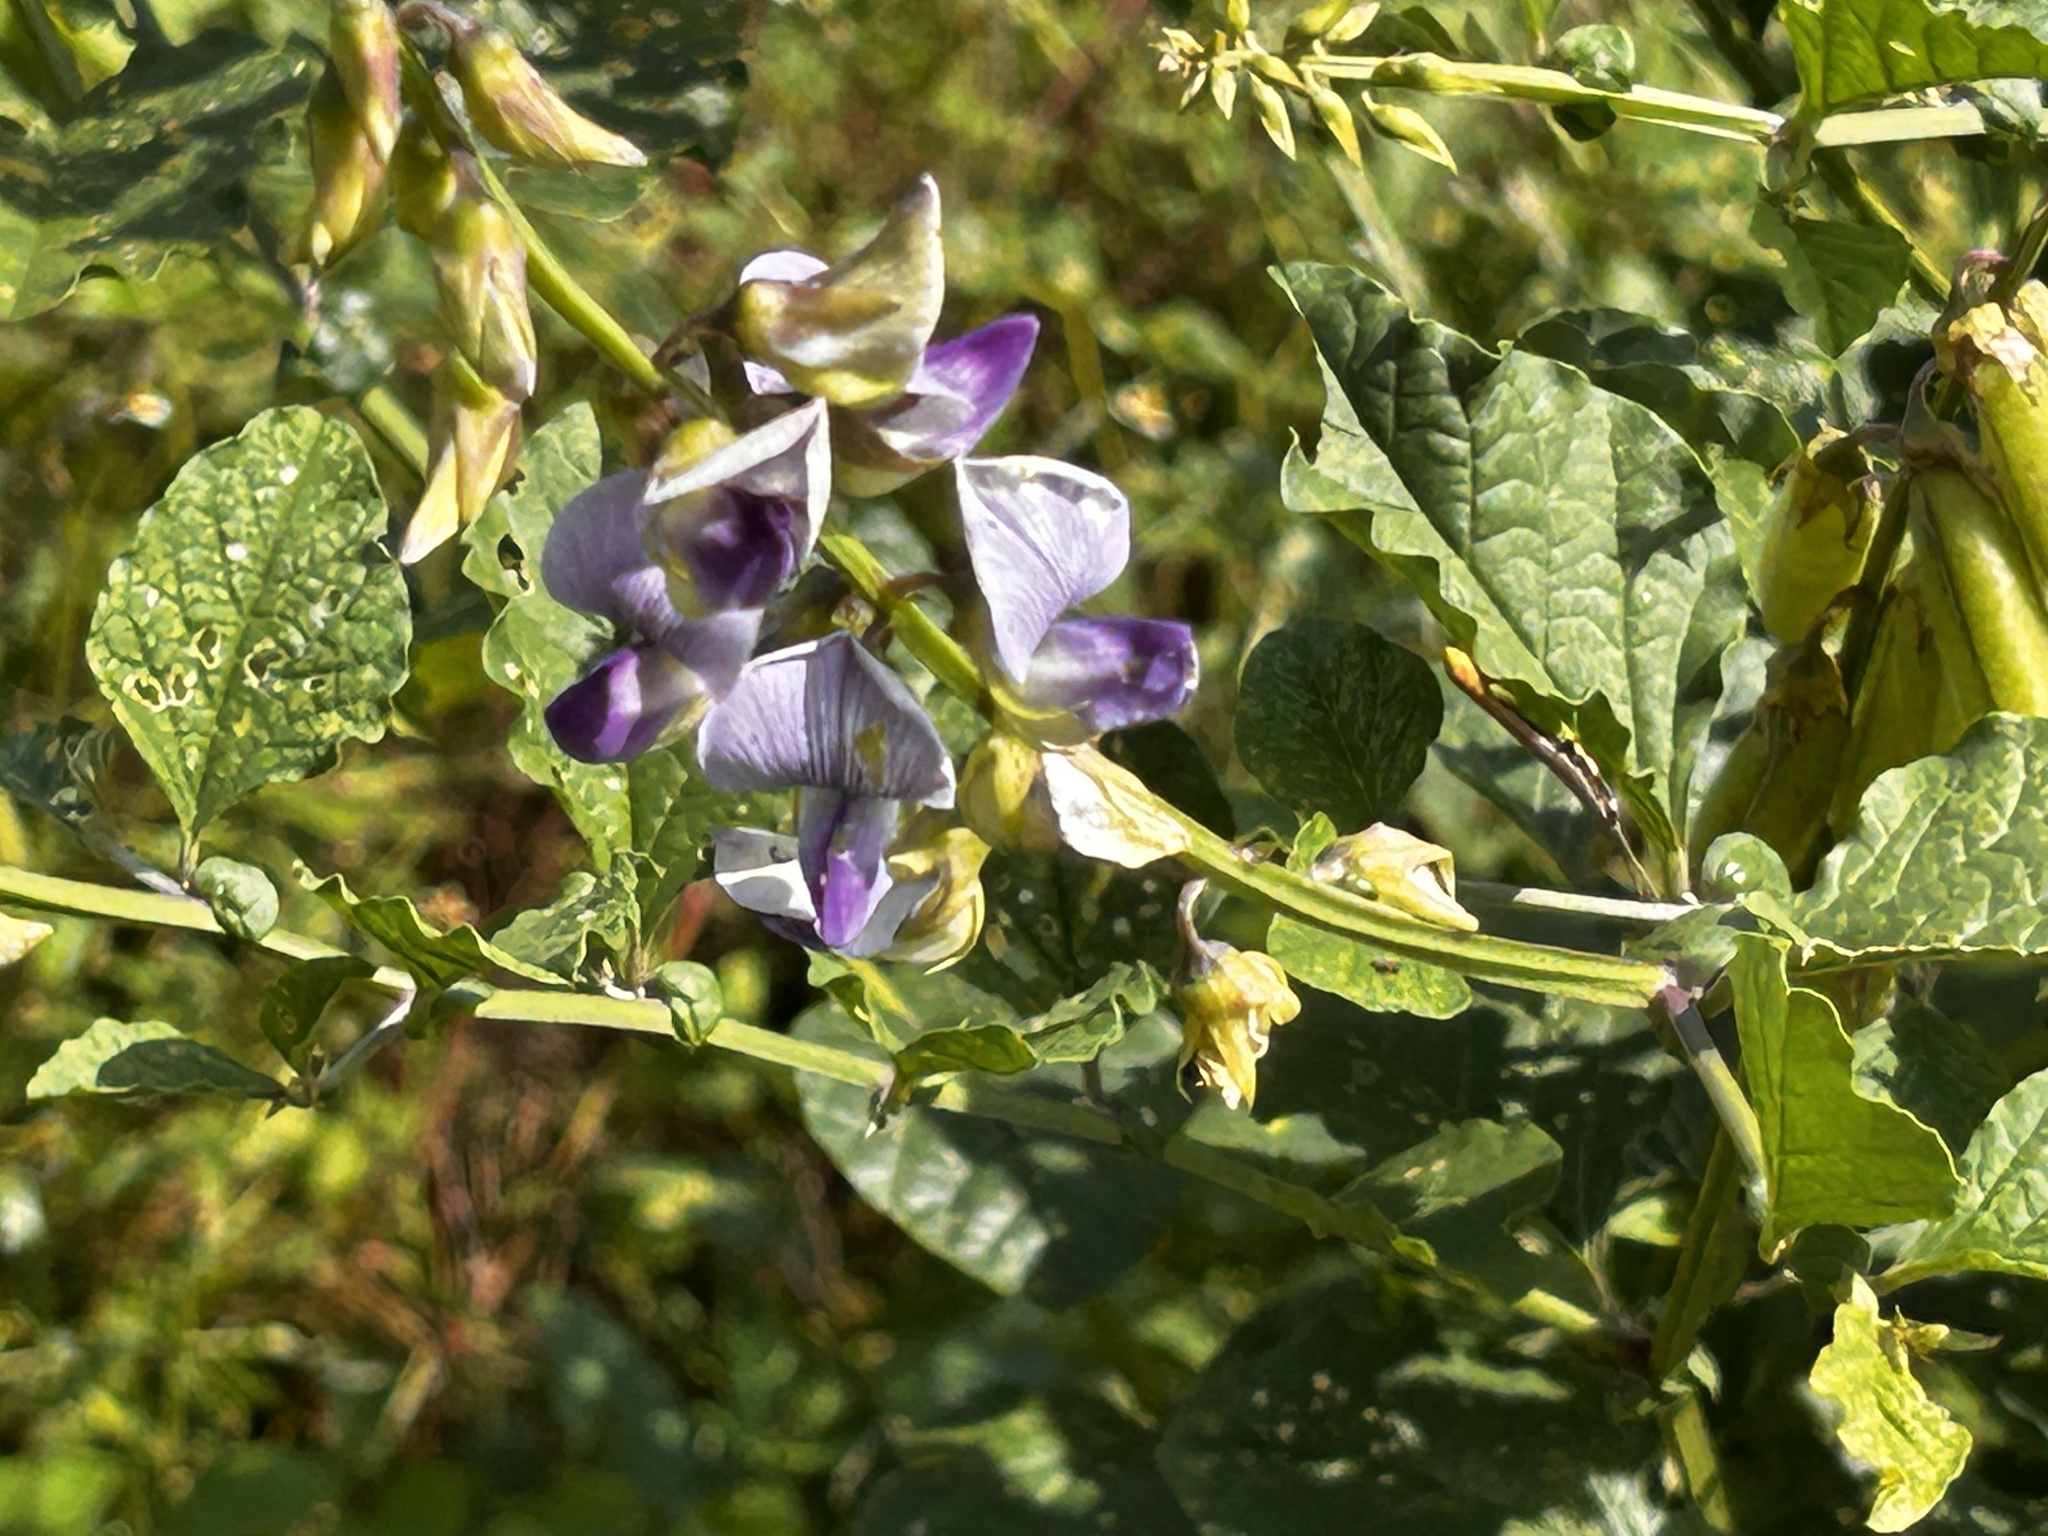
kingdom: Plantae
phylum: Tracheophyta
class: Magnoliopsida
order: Fabales
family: Fabaceae
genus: Crotalaria
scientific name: Crotalaria verrucosa
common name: Blue rattlesnake
